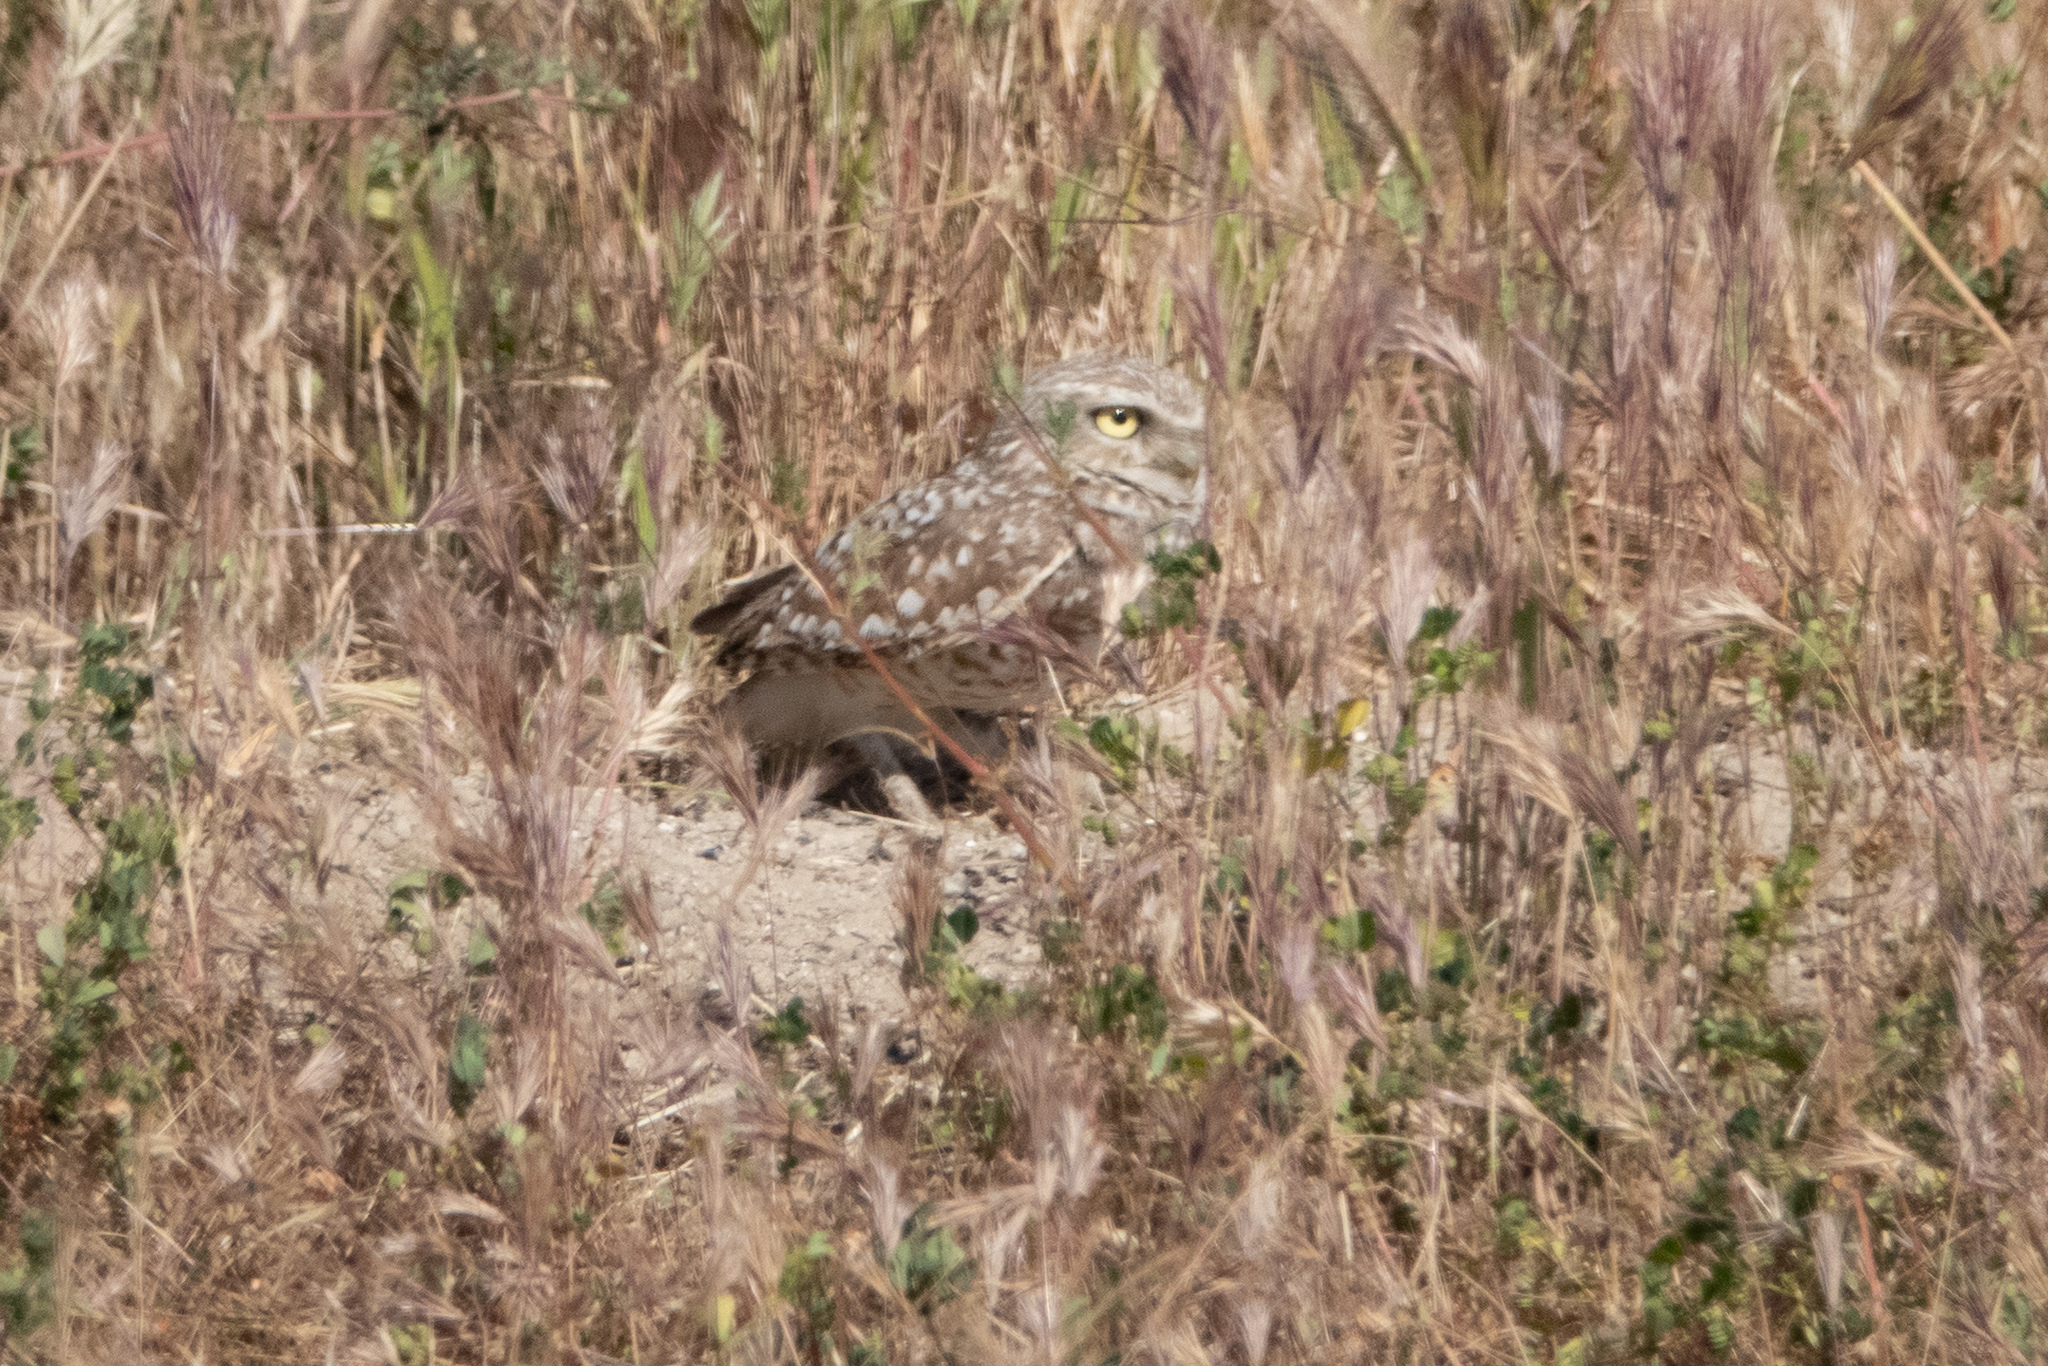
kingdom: Animalia
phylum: Chordata
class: Aves
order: Strigiformes
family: Strigidae
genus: Athene
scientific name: Athene cunicularia
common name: Burrowing owl
